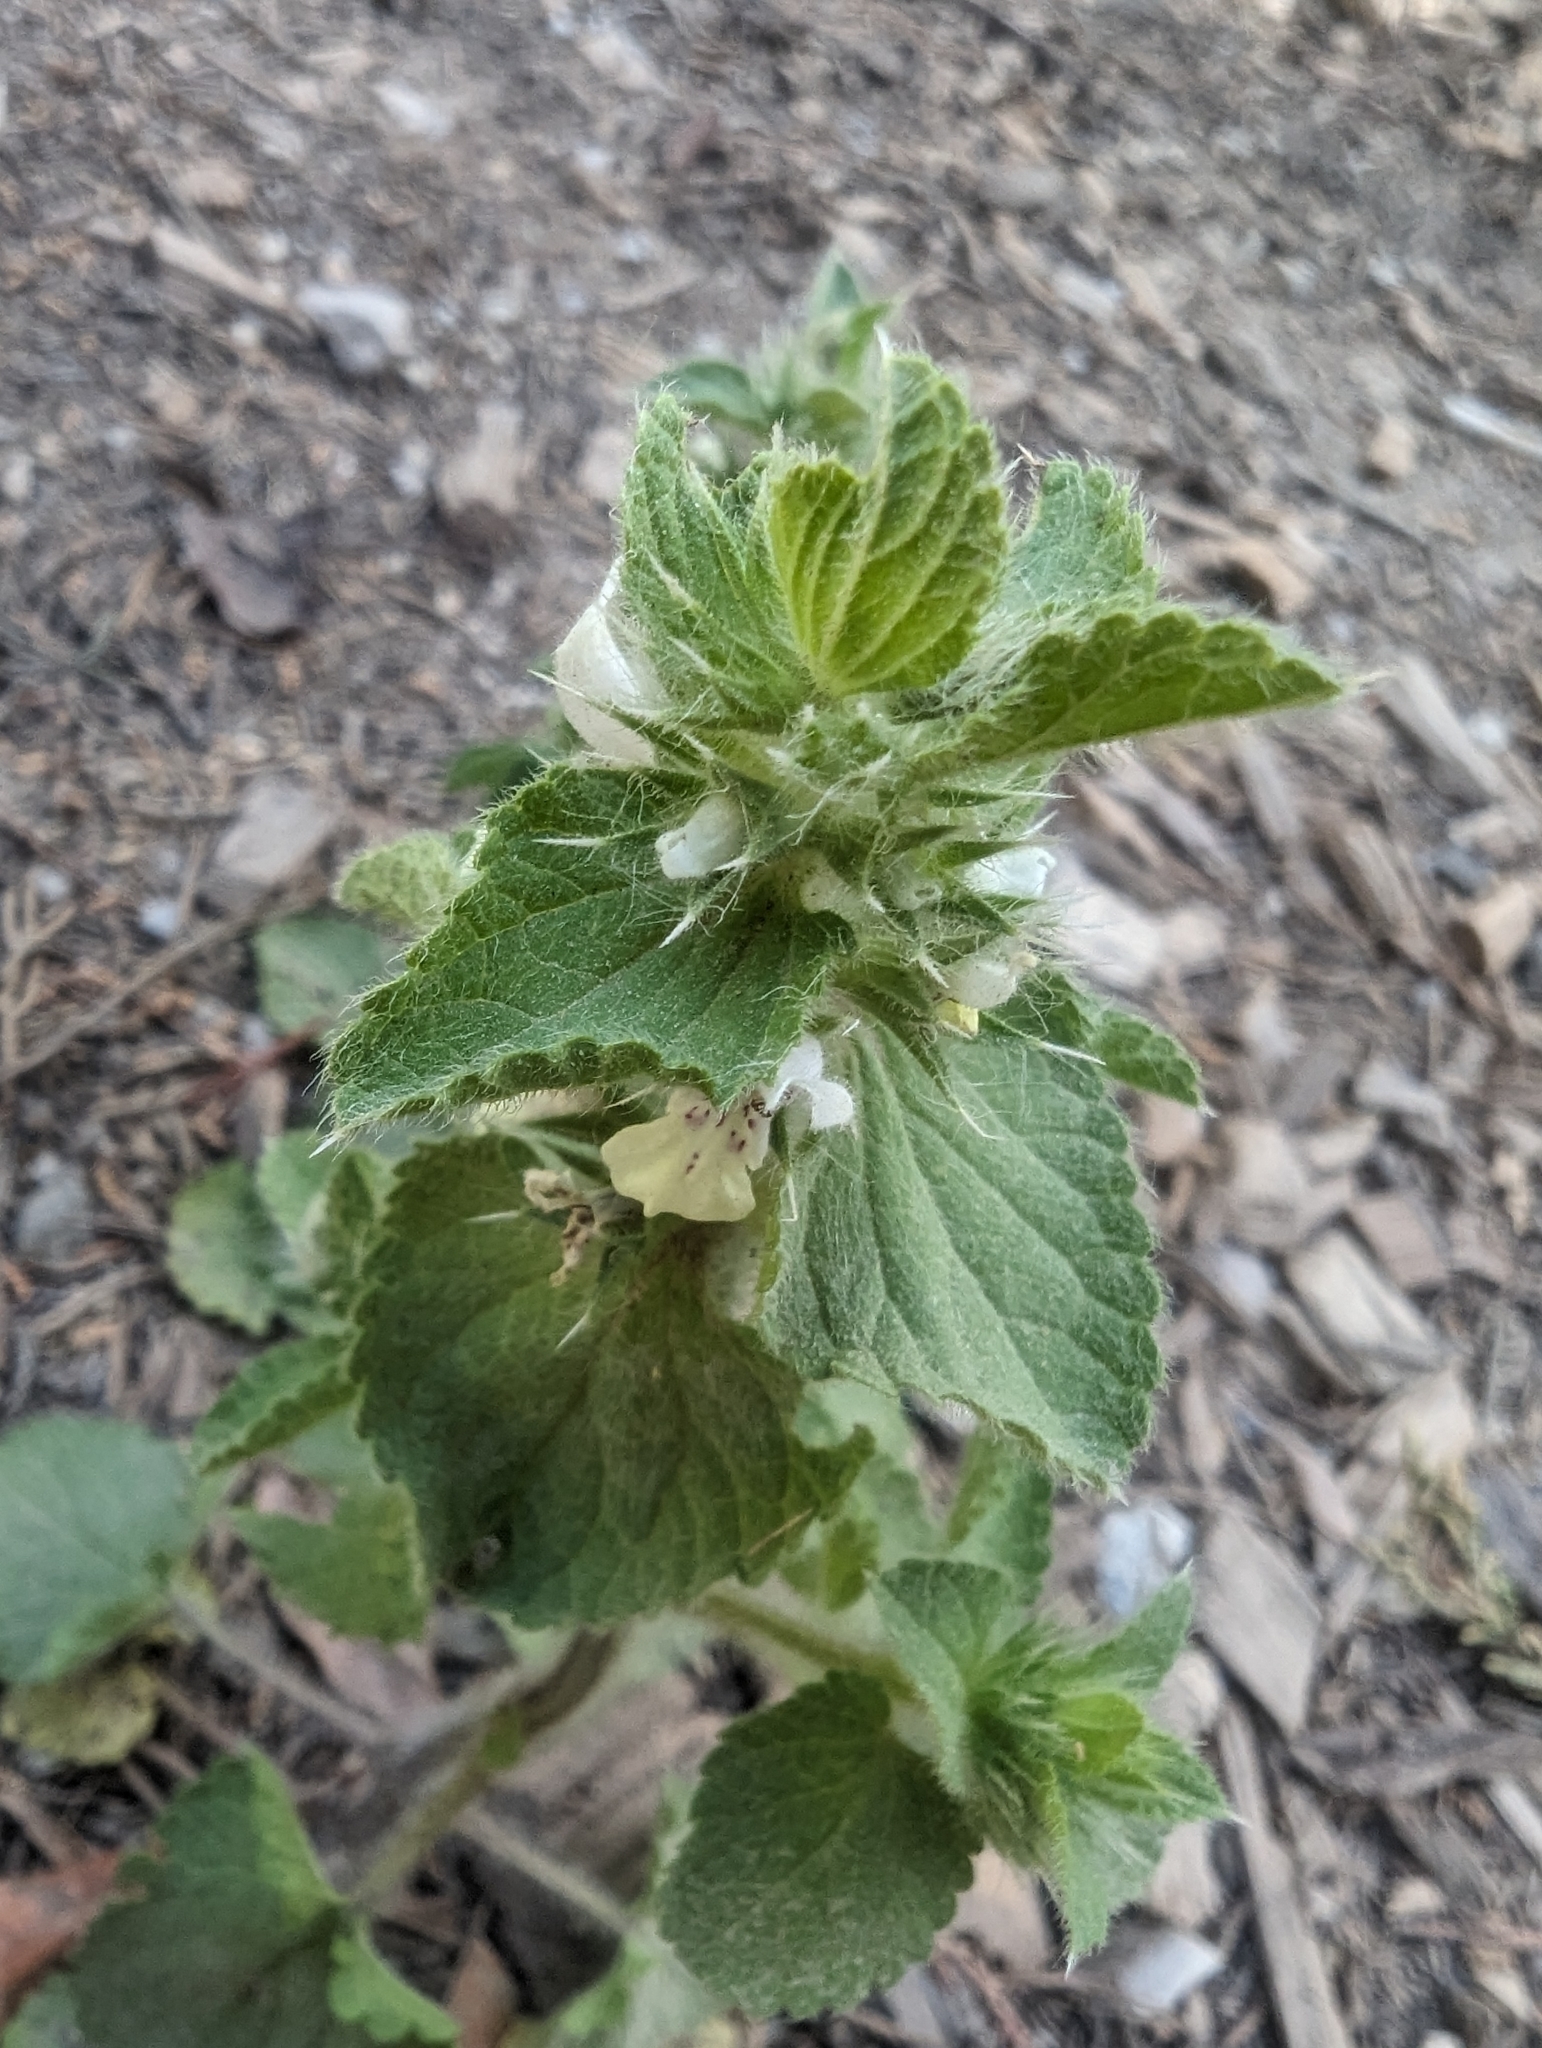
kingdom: Plantae
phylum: Tracheophyta
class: Magnoliopsida
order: Lamiales
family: Lamiaceae
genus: Stachys
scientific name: Stachys ocymastrum
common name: Italian hedgenettle
